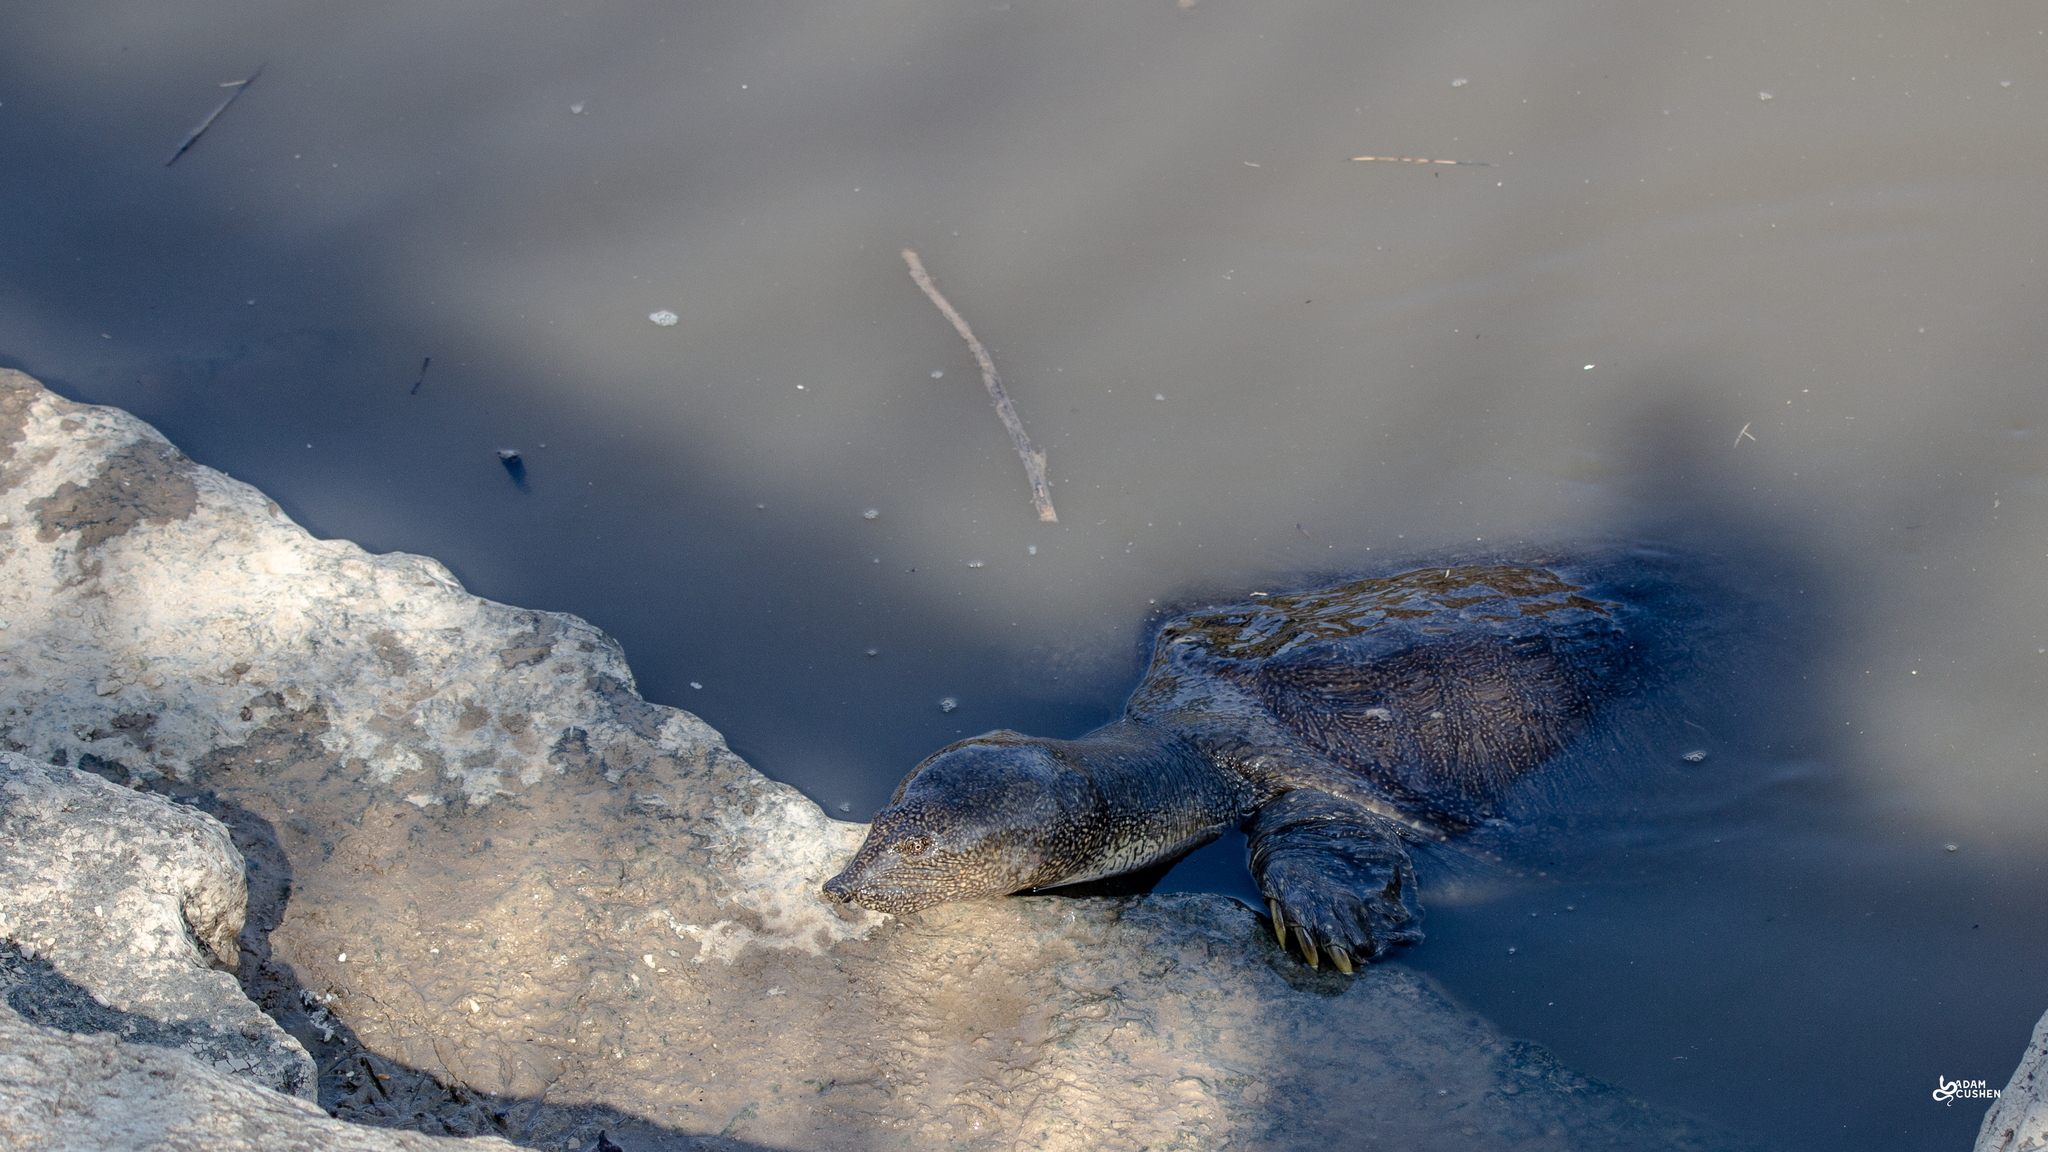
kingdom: Animalia
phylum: Chordata
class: Testudines
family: Trionychidae
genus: Trionyx
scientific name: Trionyx triunguis
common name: African softshell turtle
